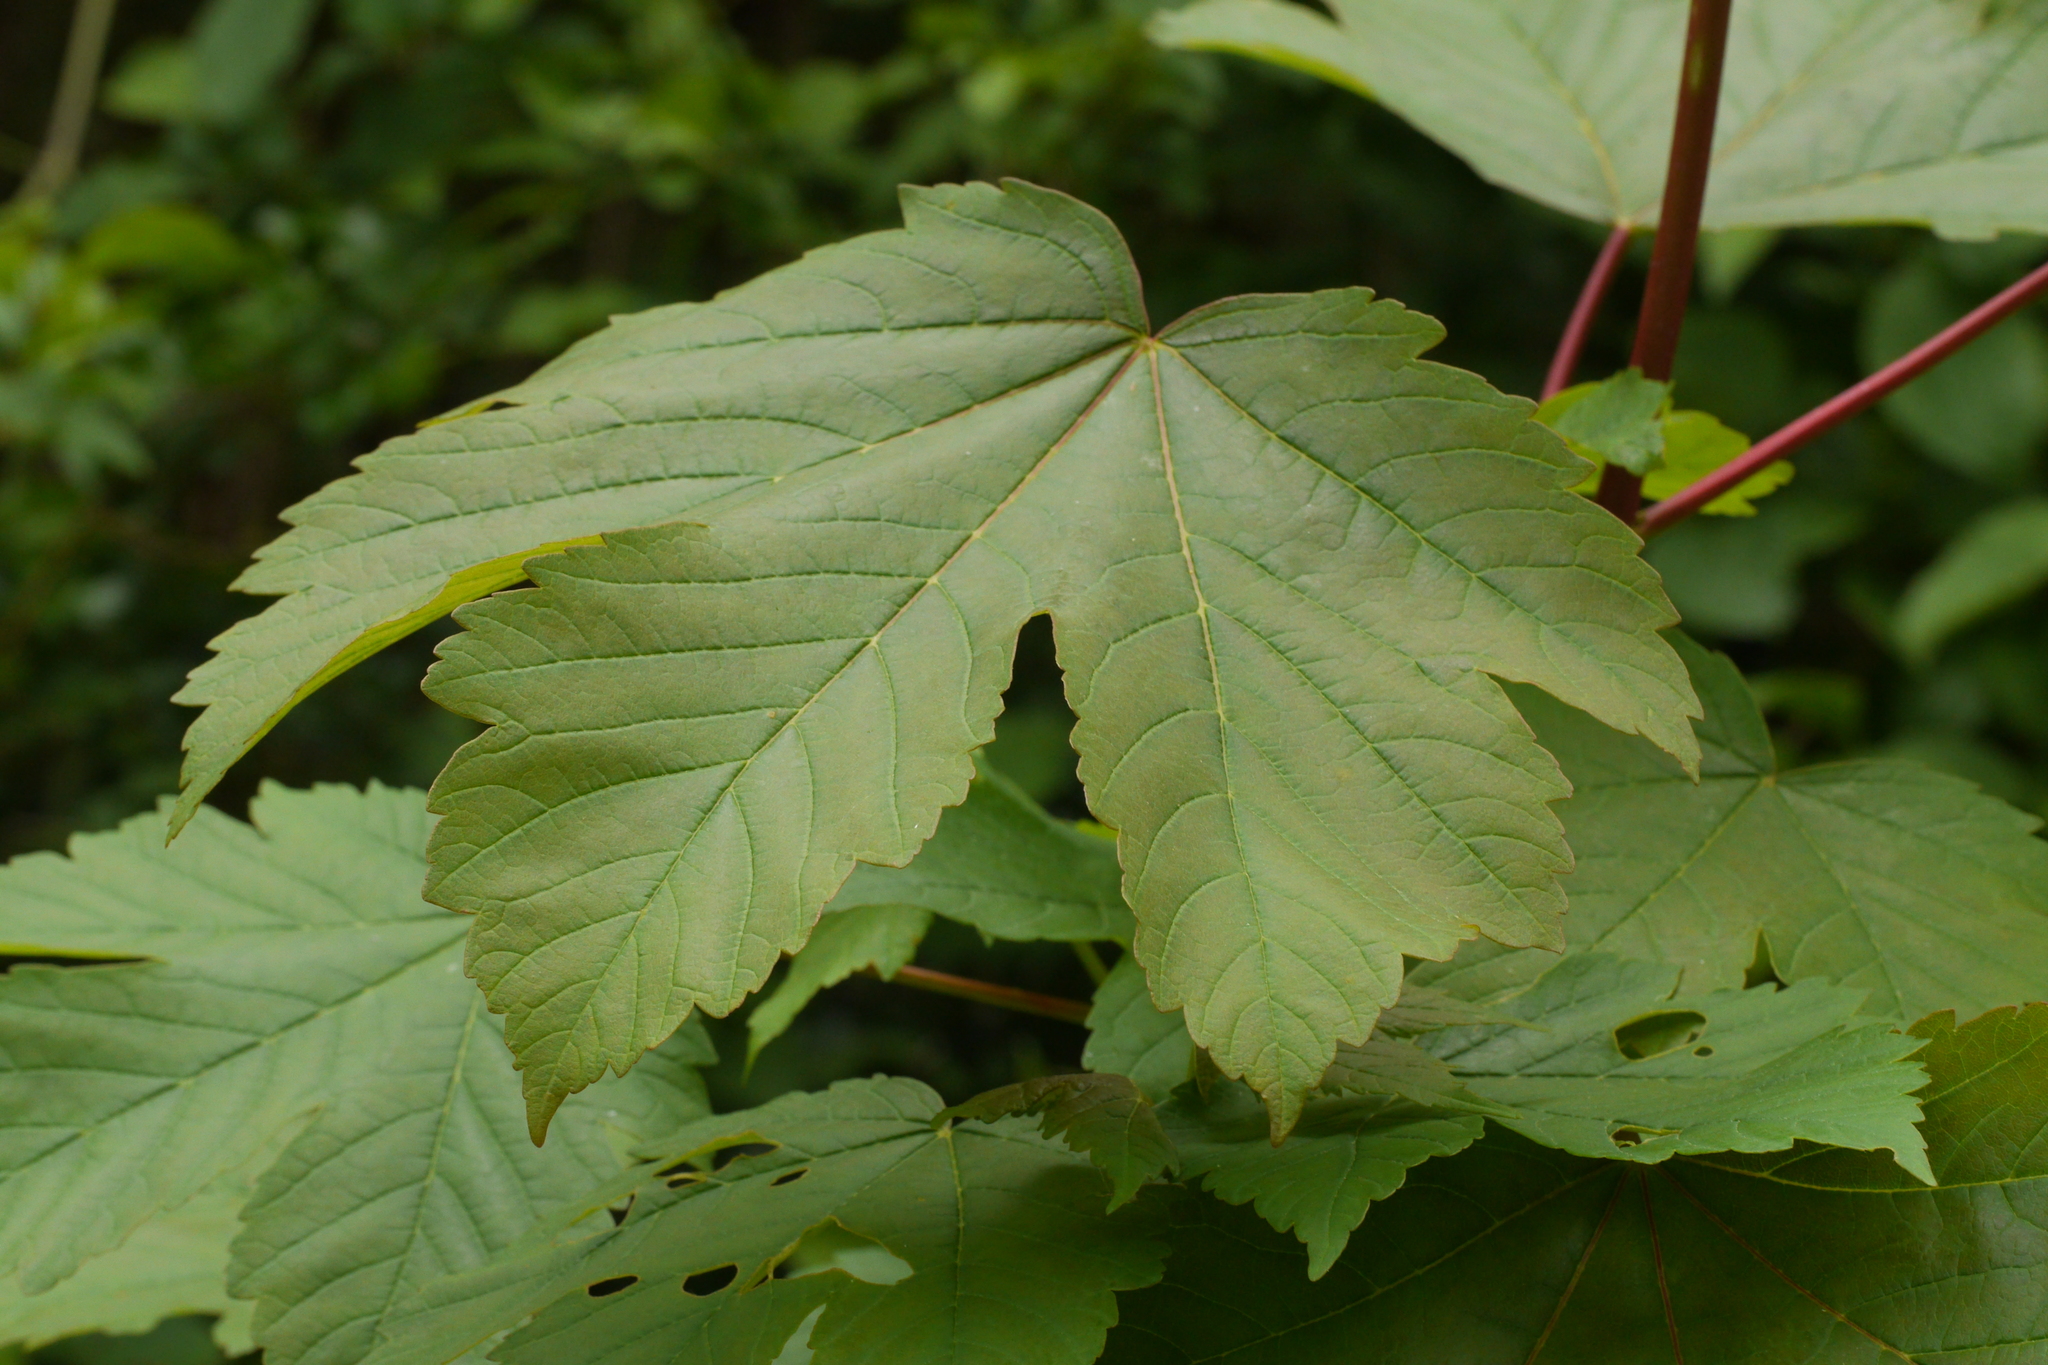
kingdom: Plantae
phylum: Tracheophyta
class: Magnoliopsida
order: Sapindales
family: Sapindaceae
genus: Acer
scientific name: Acer pseudoplatanus
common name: Sycamore
